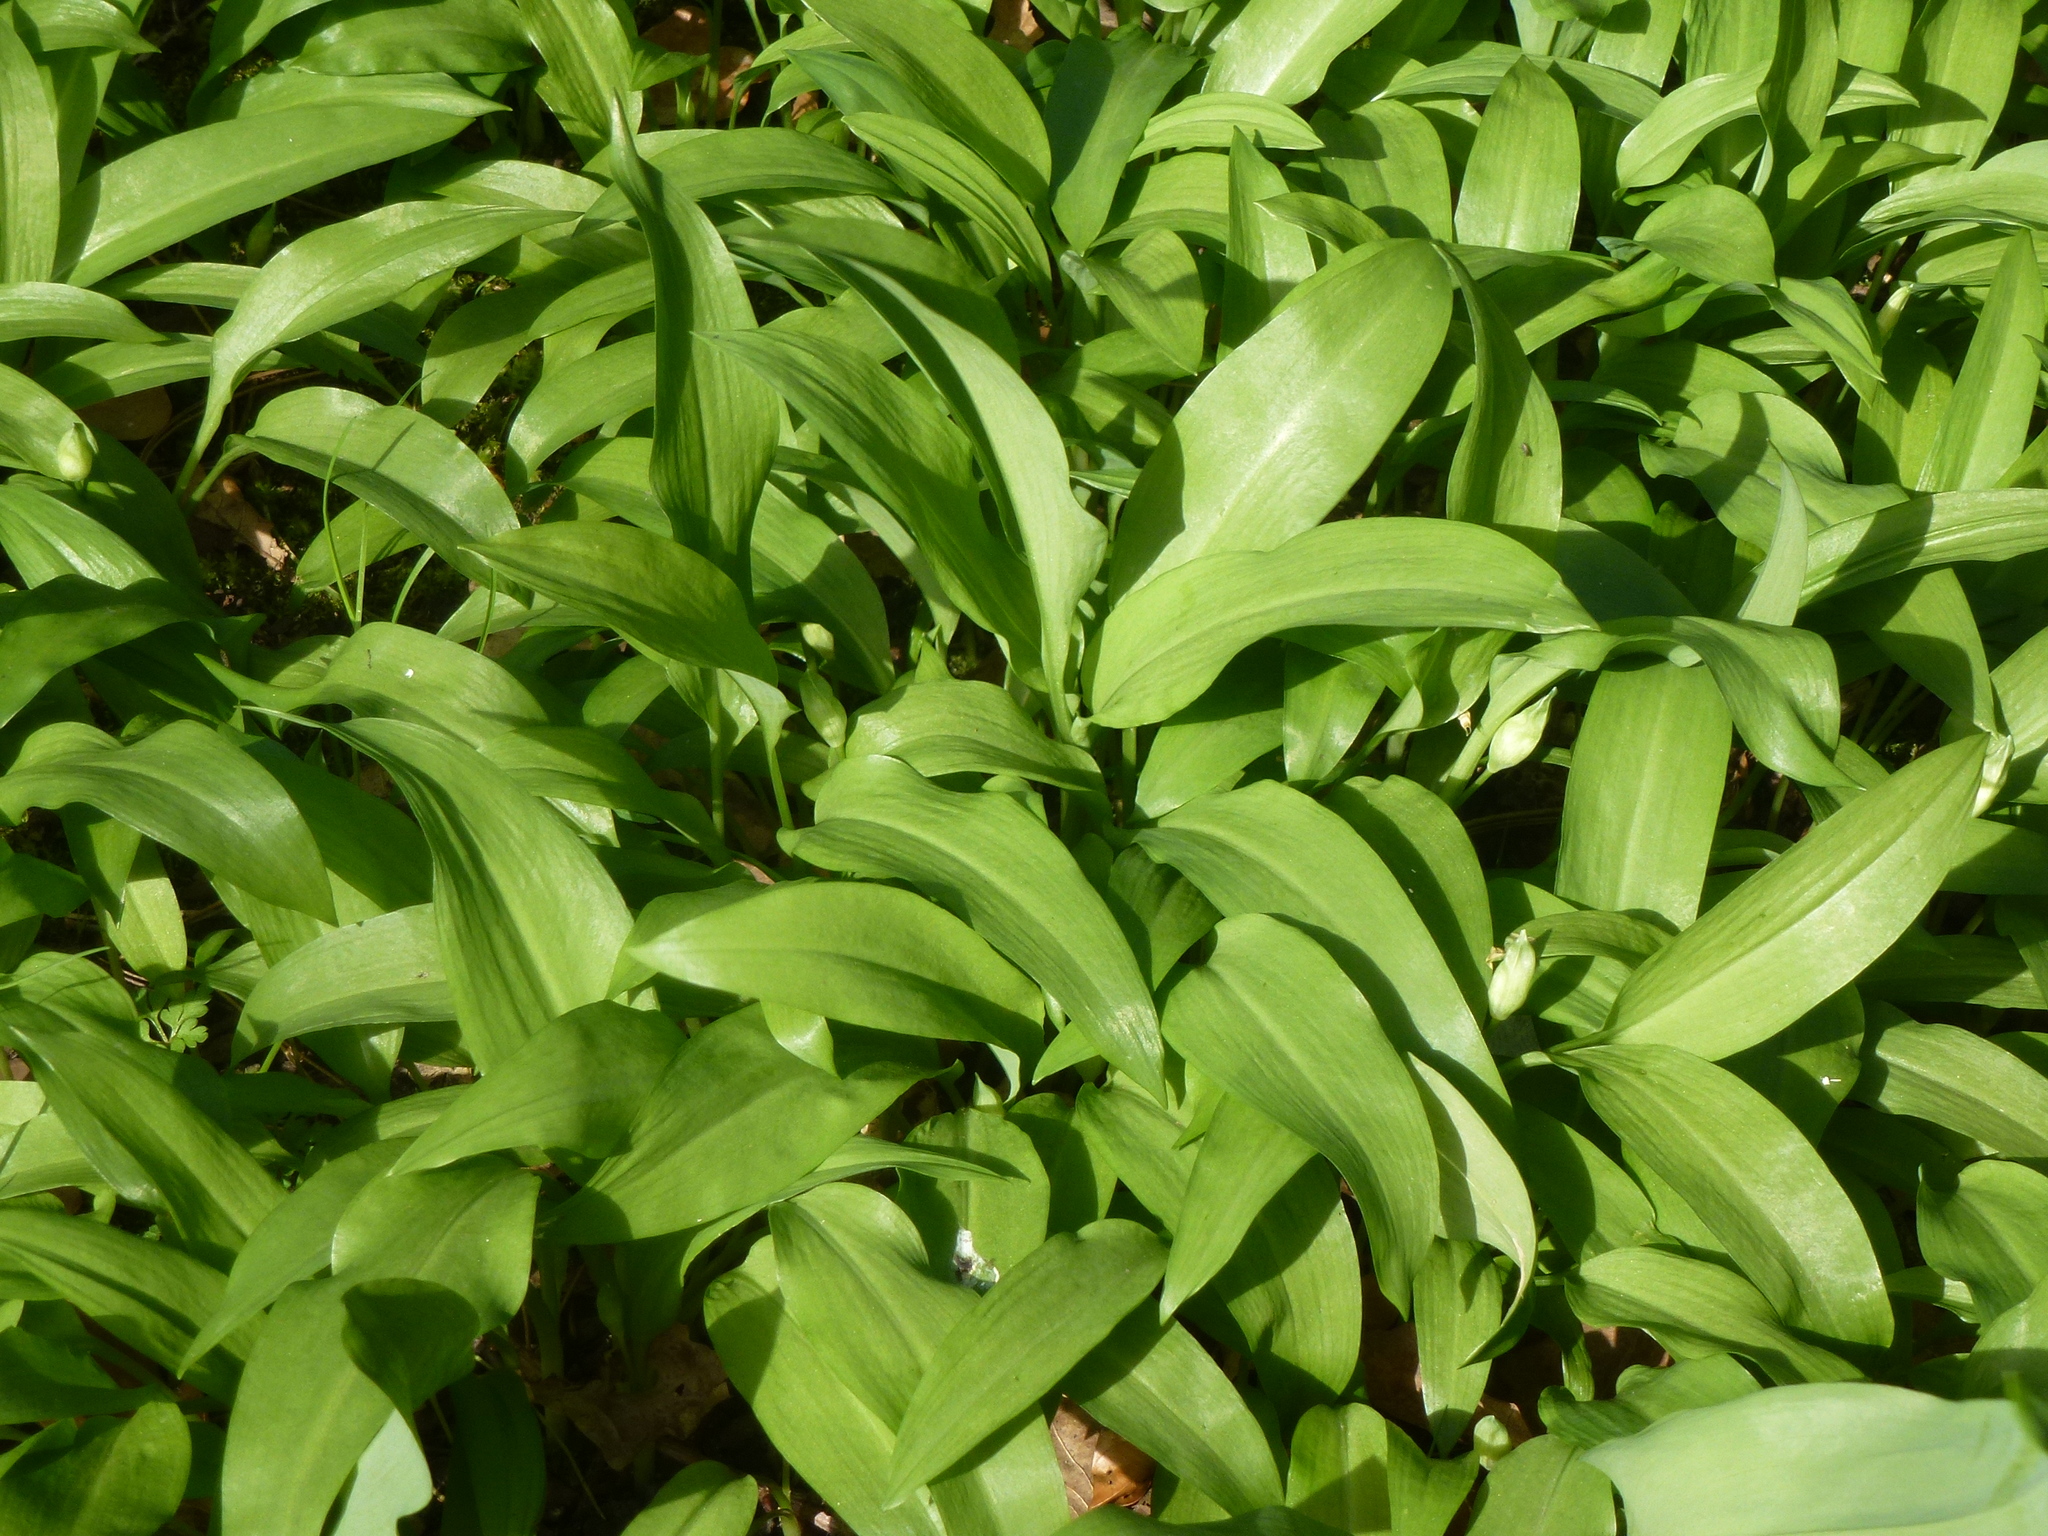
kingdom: Plantae
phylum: Tracheophyta
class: Liliopsida
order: Asparagales
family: Amaryllidaceae
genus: Allium
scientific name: Allium ursinum
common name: Ramsons
